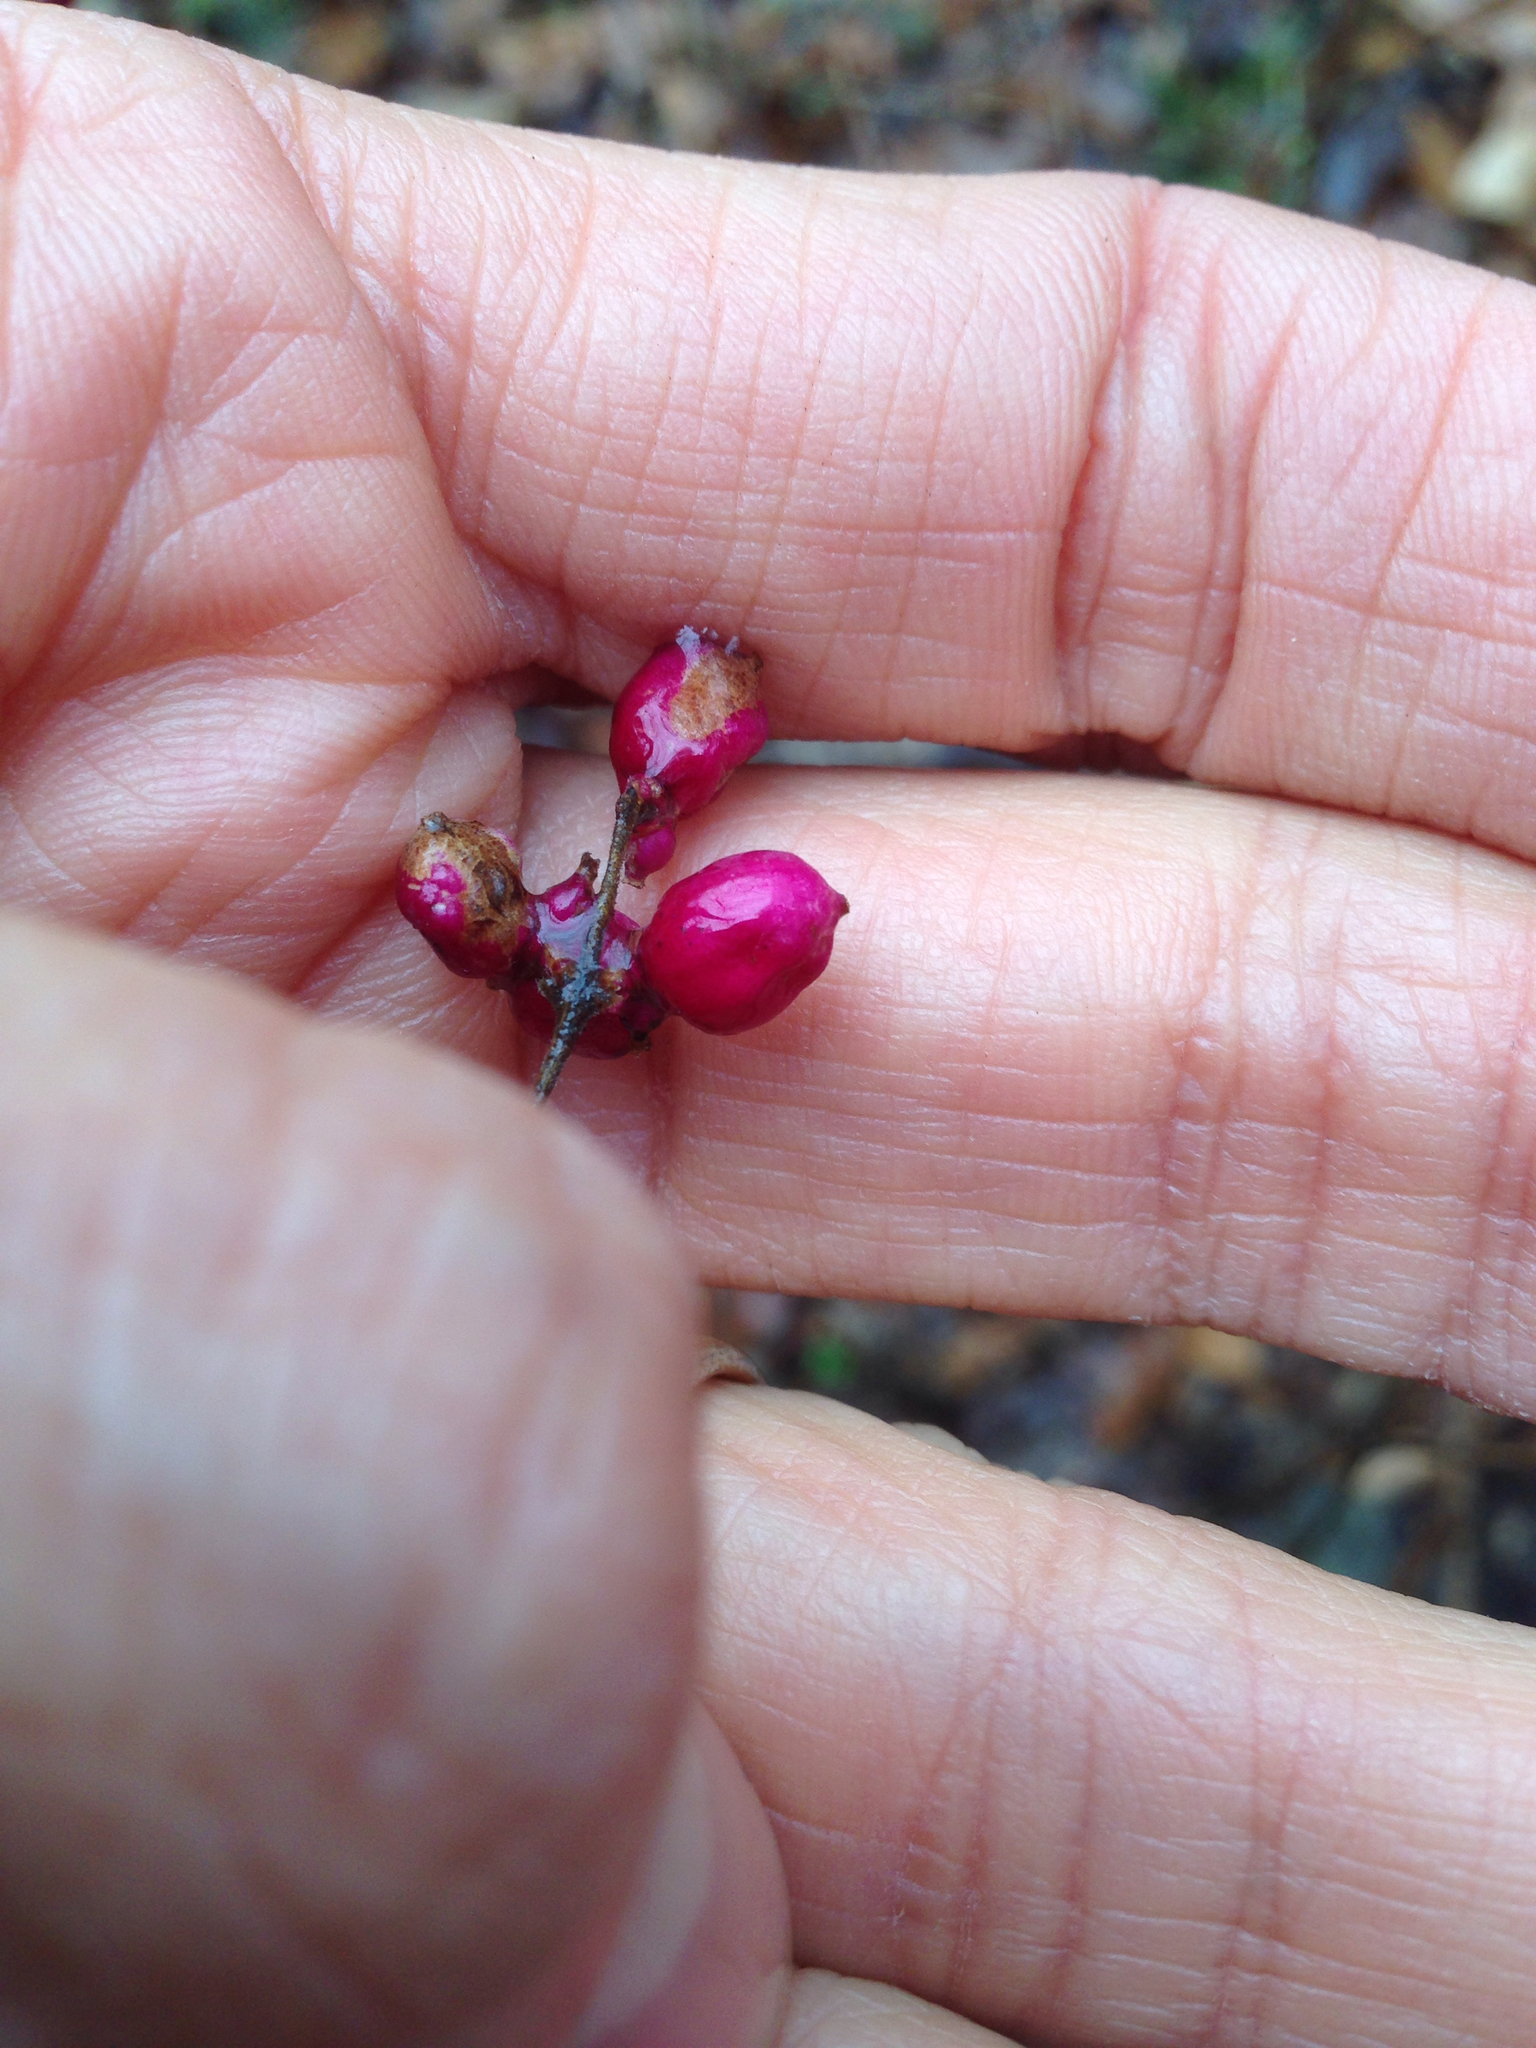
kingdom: Plantae
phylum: Tracheophyta
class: Magnoliopsida
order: Laurales
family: Lauraceae
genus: Lindera
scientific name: Lindera benzoin
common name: Spicebush
